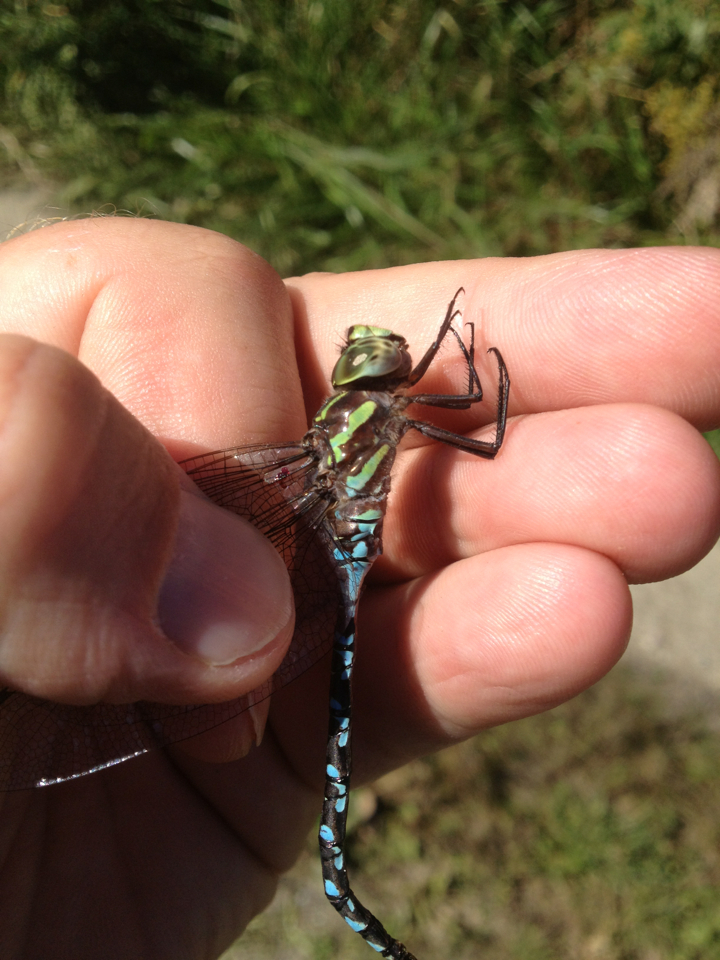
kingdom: Animalia
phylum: Arthropoda
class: Insecta
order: Odonata
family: Aeshnidae
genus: Aeshna
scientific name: Aeshna verticalis
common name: Green-striped darner
